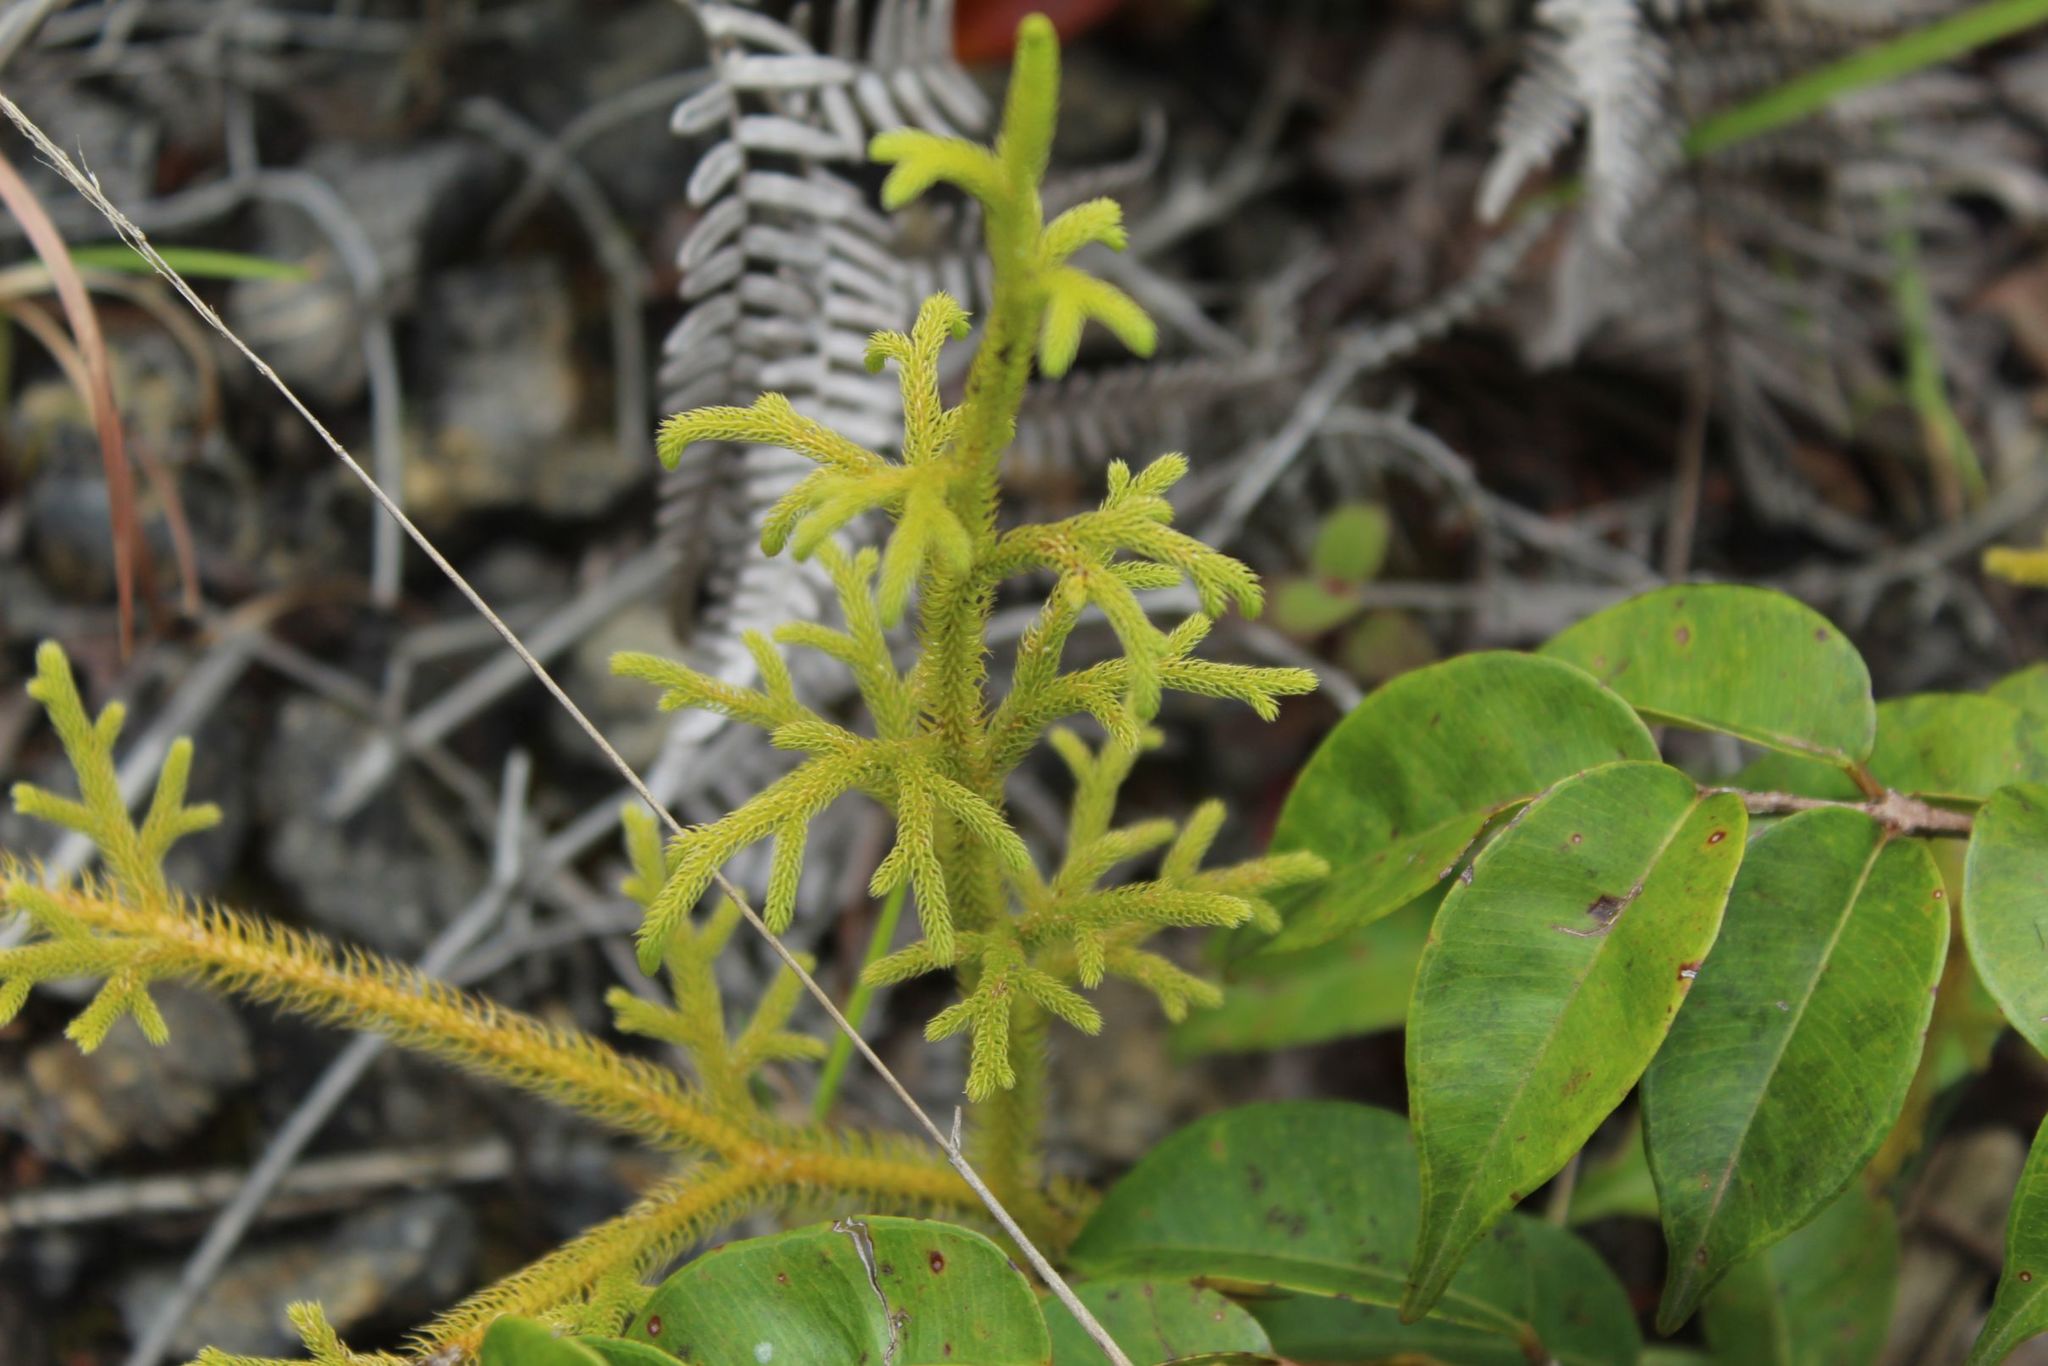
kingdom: Plantae
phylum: Tracheophyta
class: Lycopodiopsida
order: Lycopodiales
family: Lycopodiaceae
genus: Lycopodium
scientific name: Lycopodium clavatum
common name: Stag's-horn clubmoss
